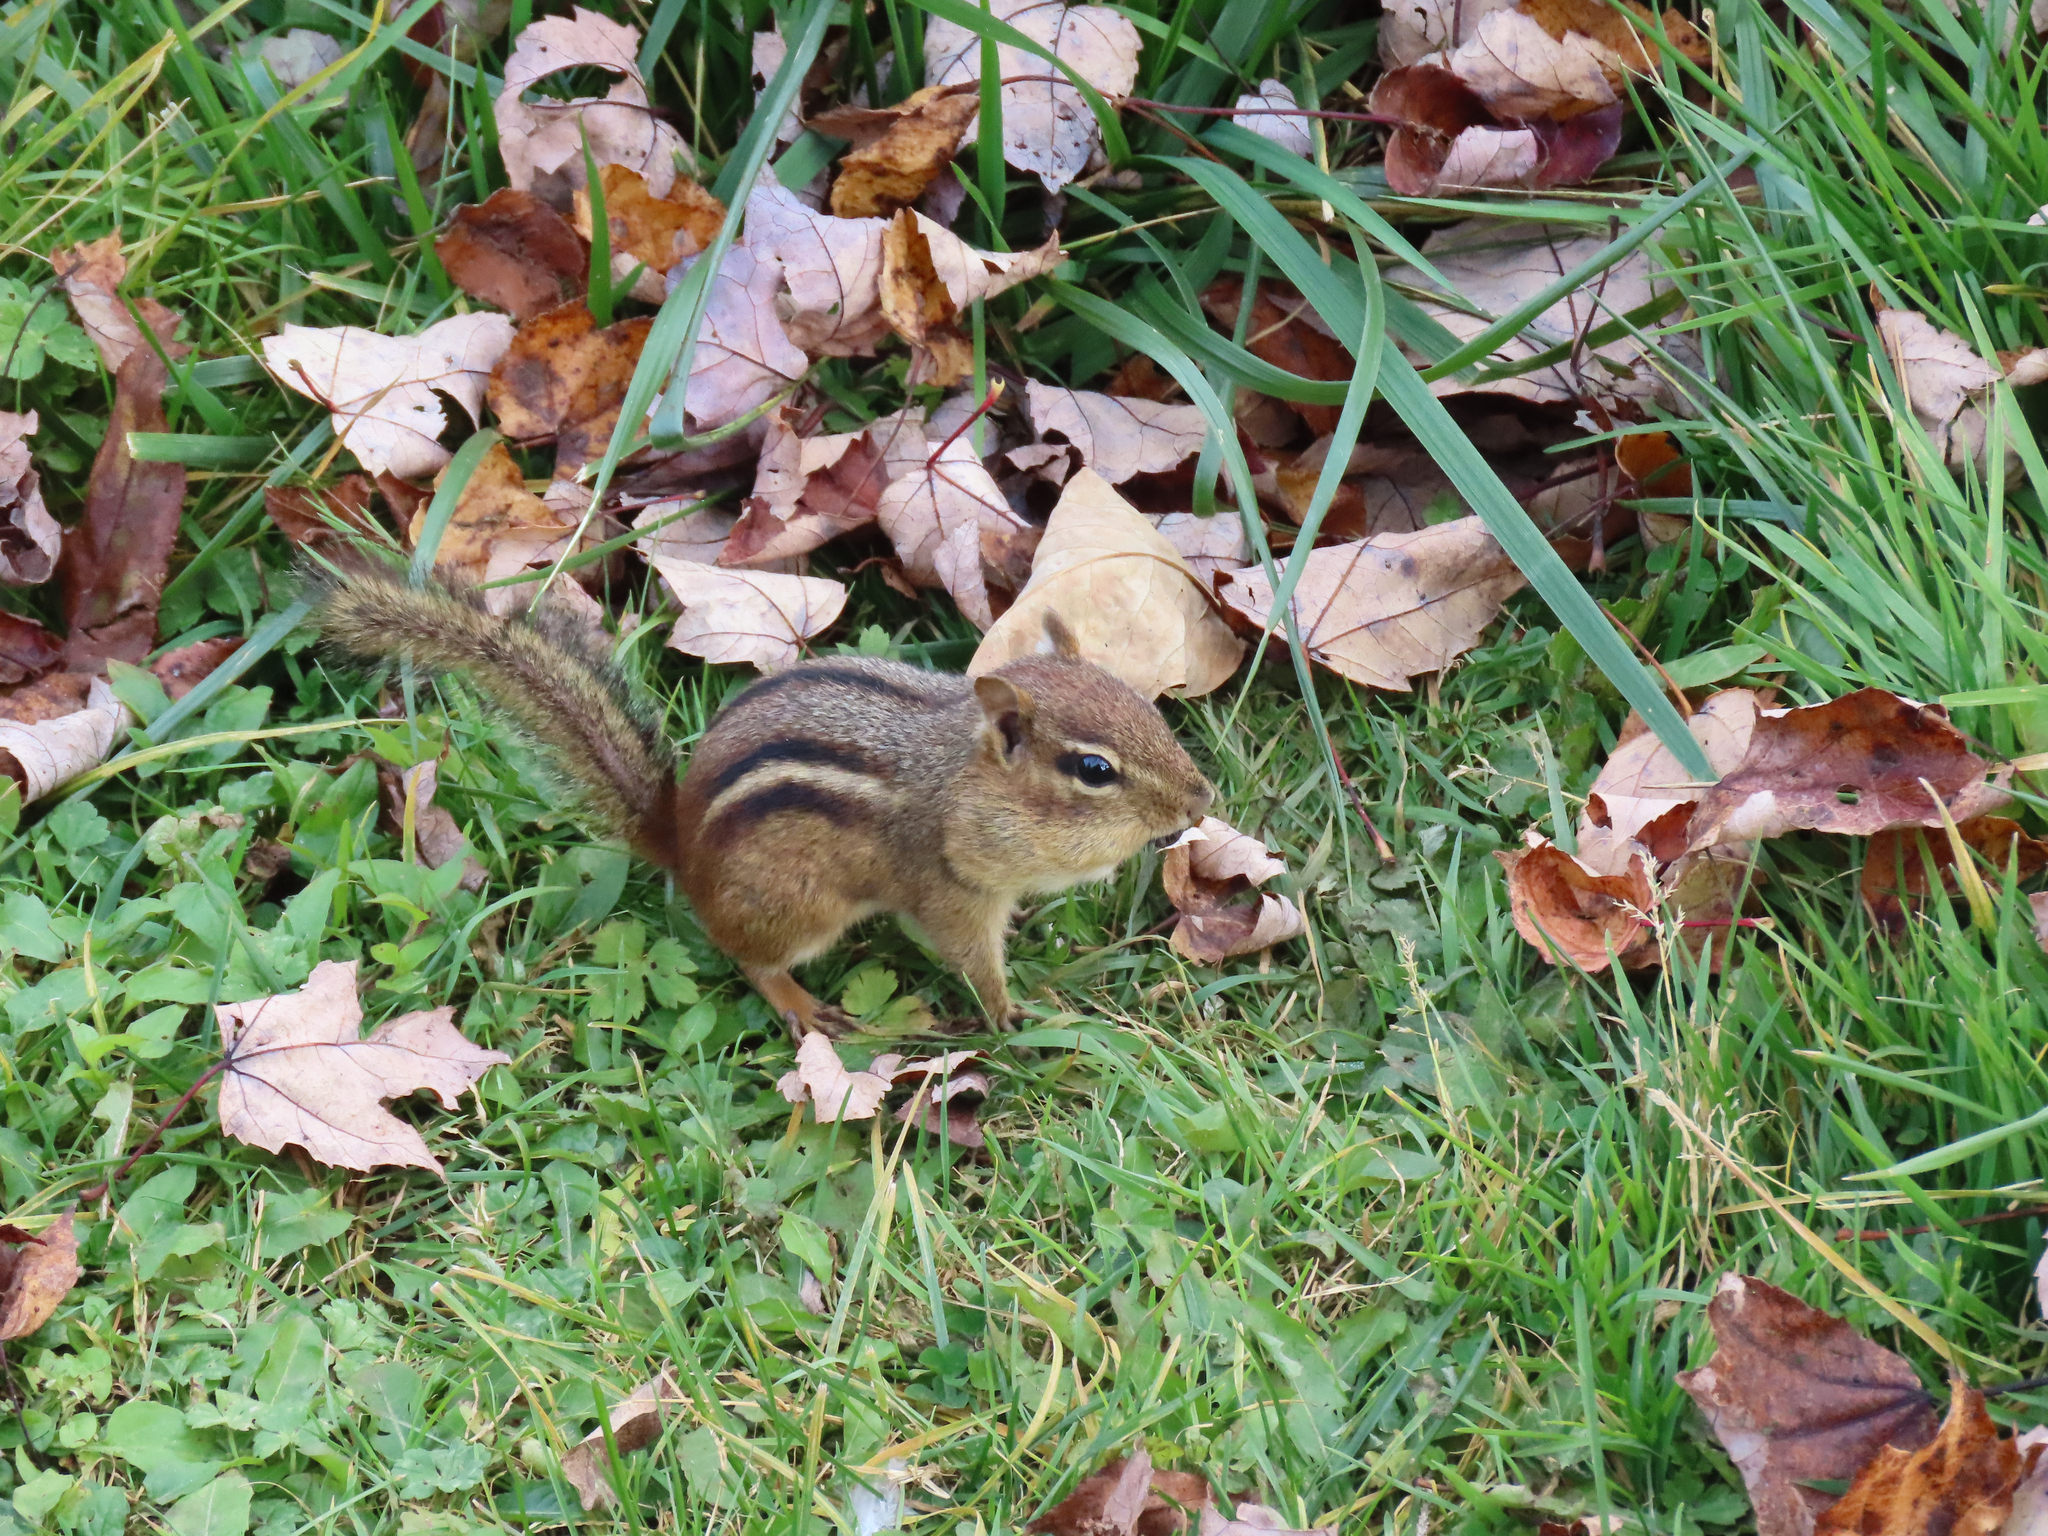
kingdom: Animalia
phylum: Chordata
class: Mammalia
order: Rodentia
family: Sciuridae
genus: Tamias
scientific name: Tamias striatus
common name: Eastern chipmunk
